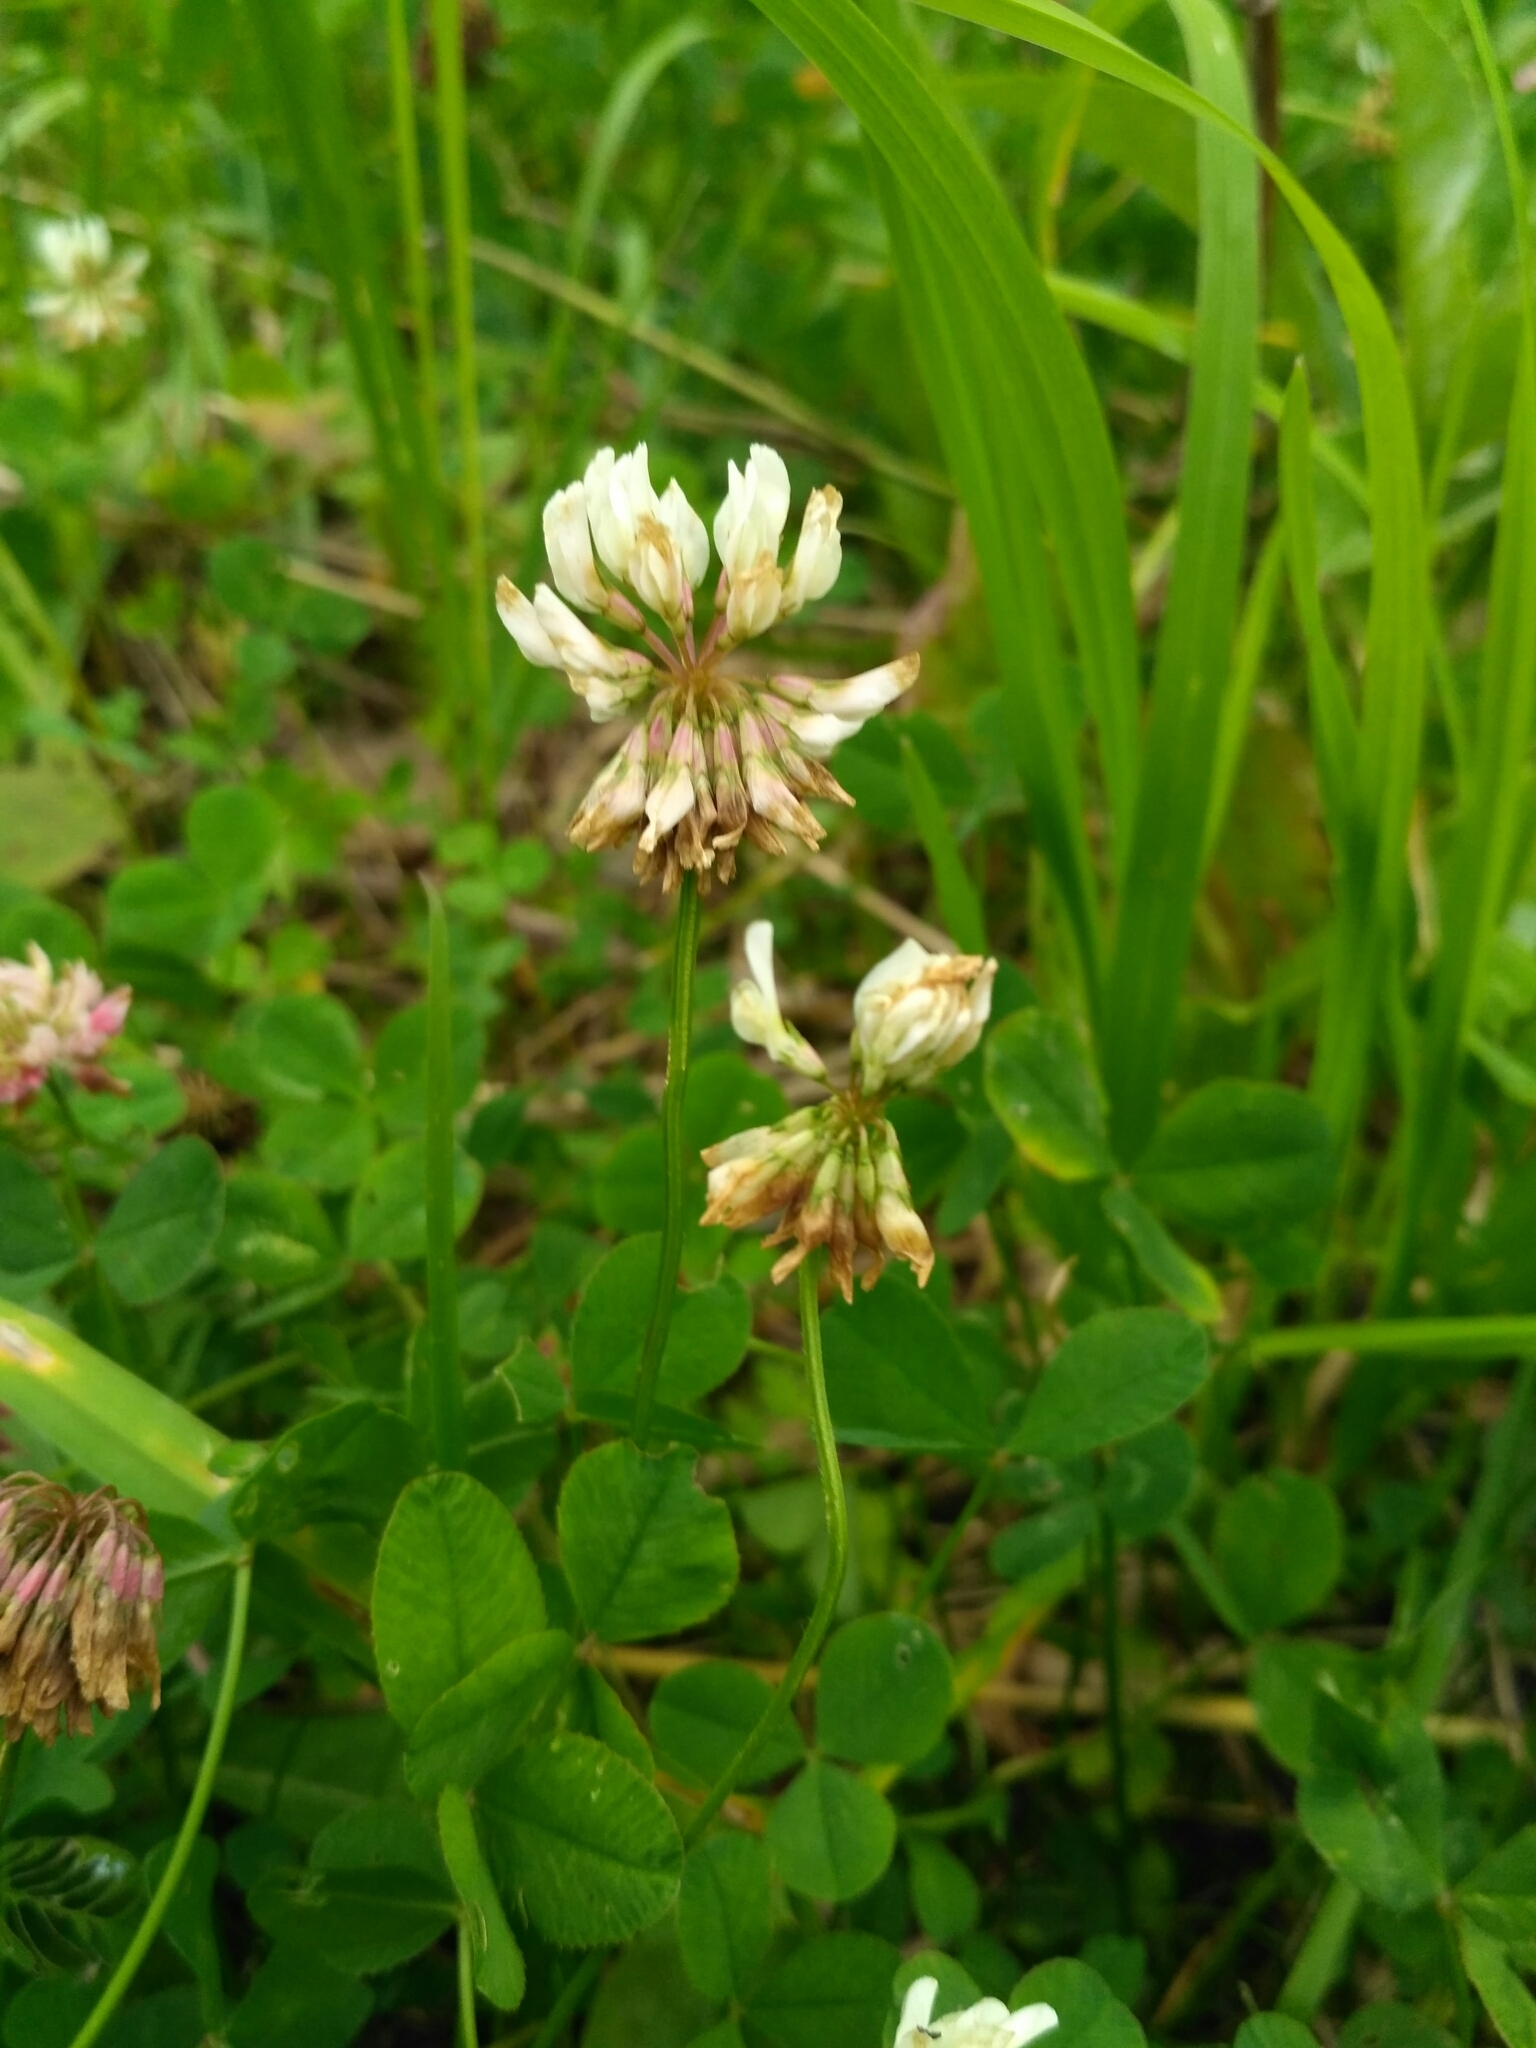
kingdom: Plantae
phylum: Tracheophyta
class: Magnoliopsida
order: Fabales
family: Fabaceae
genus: Trifolium
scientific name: Trifolium repens
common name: White clover
